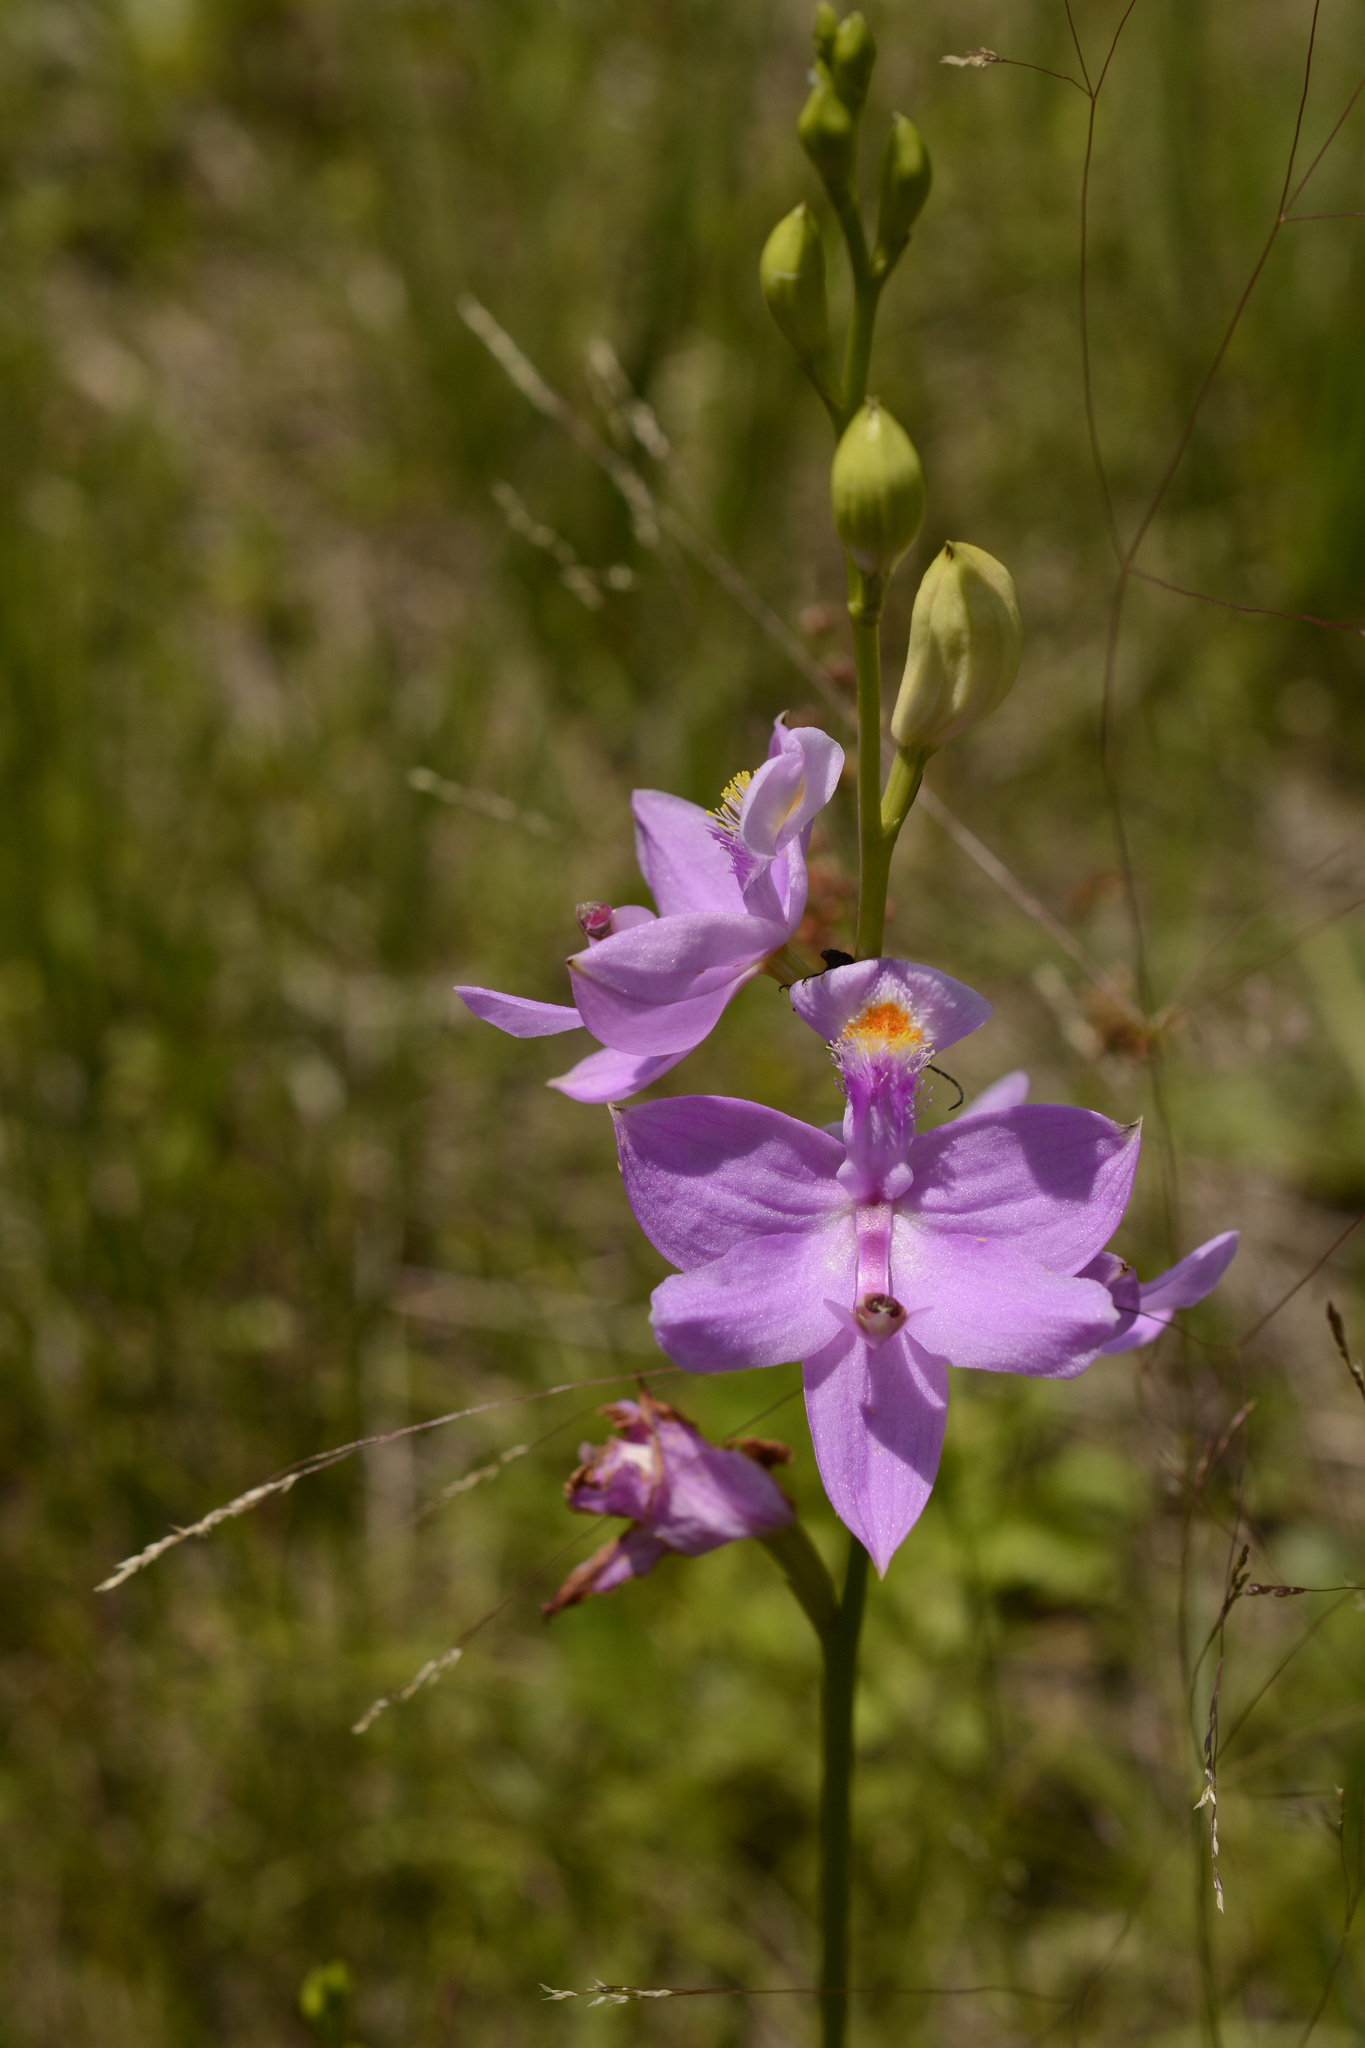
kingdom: Plantae
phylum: Tracheophyta
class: Liliopsida
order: Asparagales
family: Orchidaceae
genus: Calopogon
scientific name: Calopogon tuberosus
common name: Grass-pink
